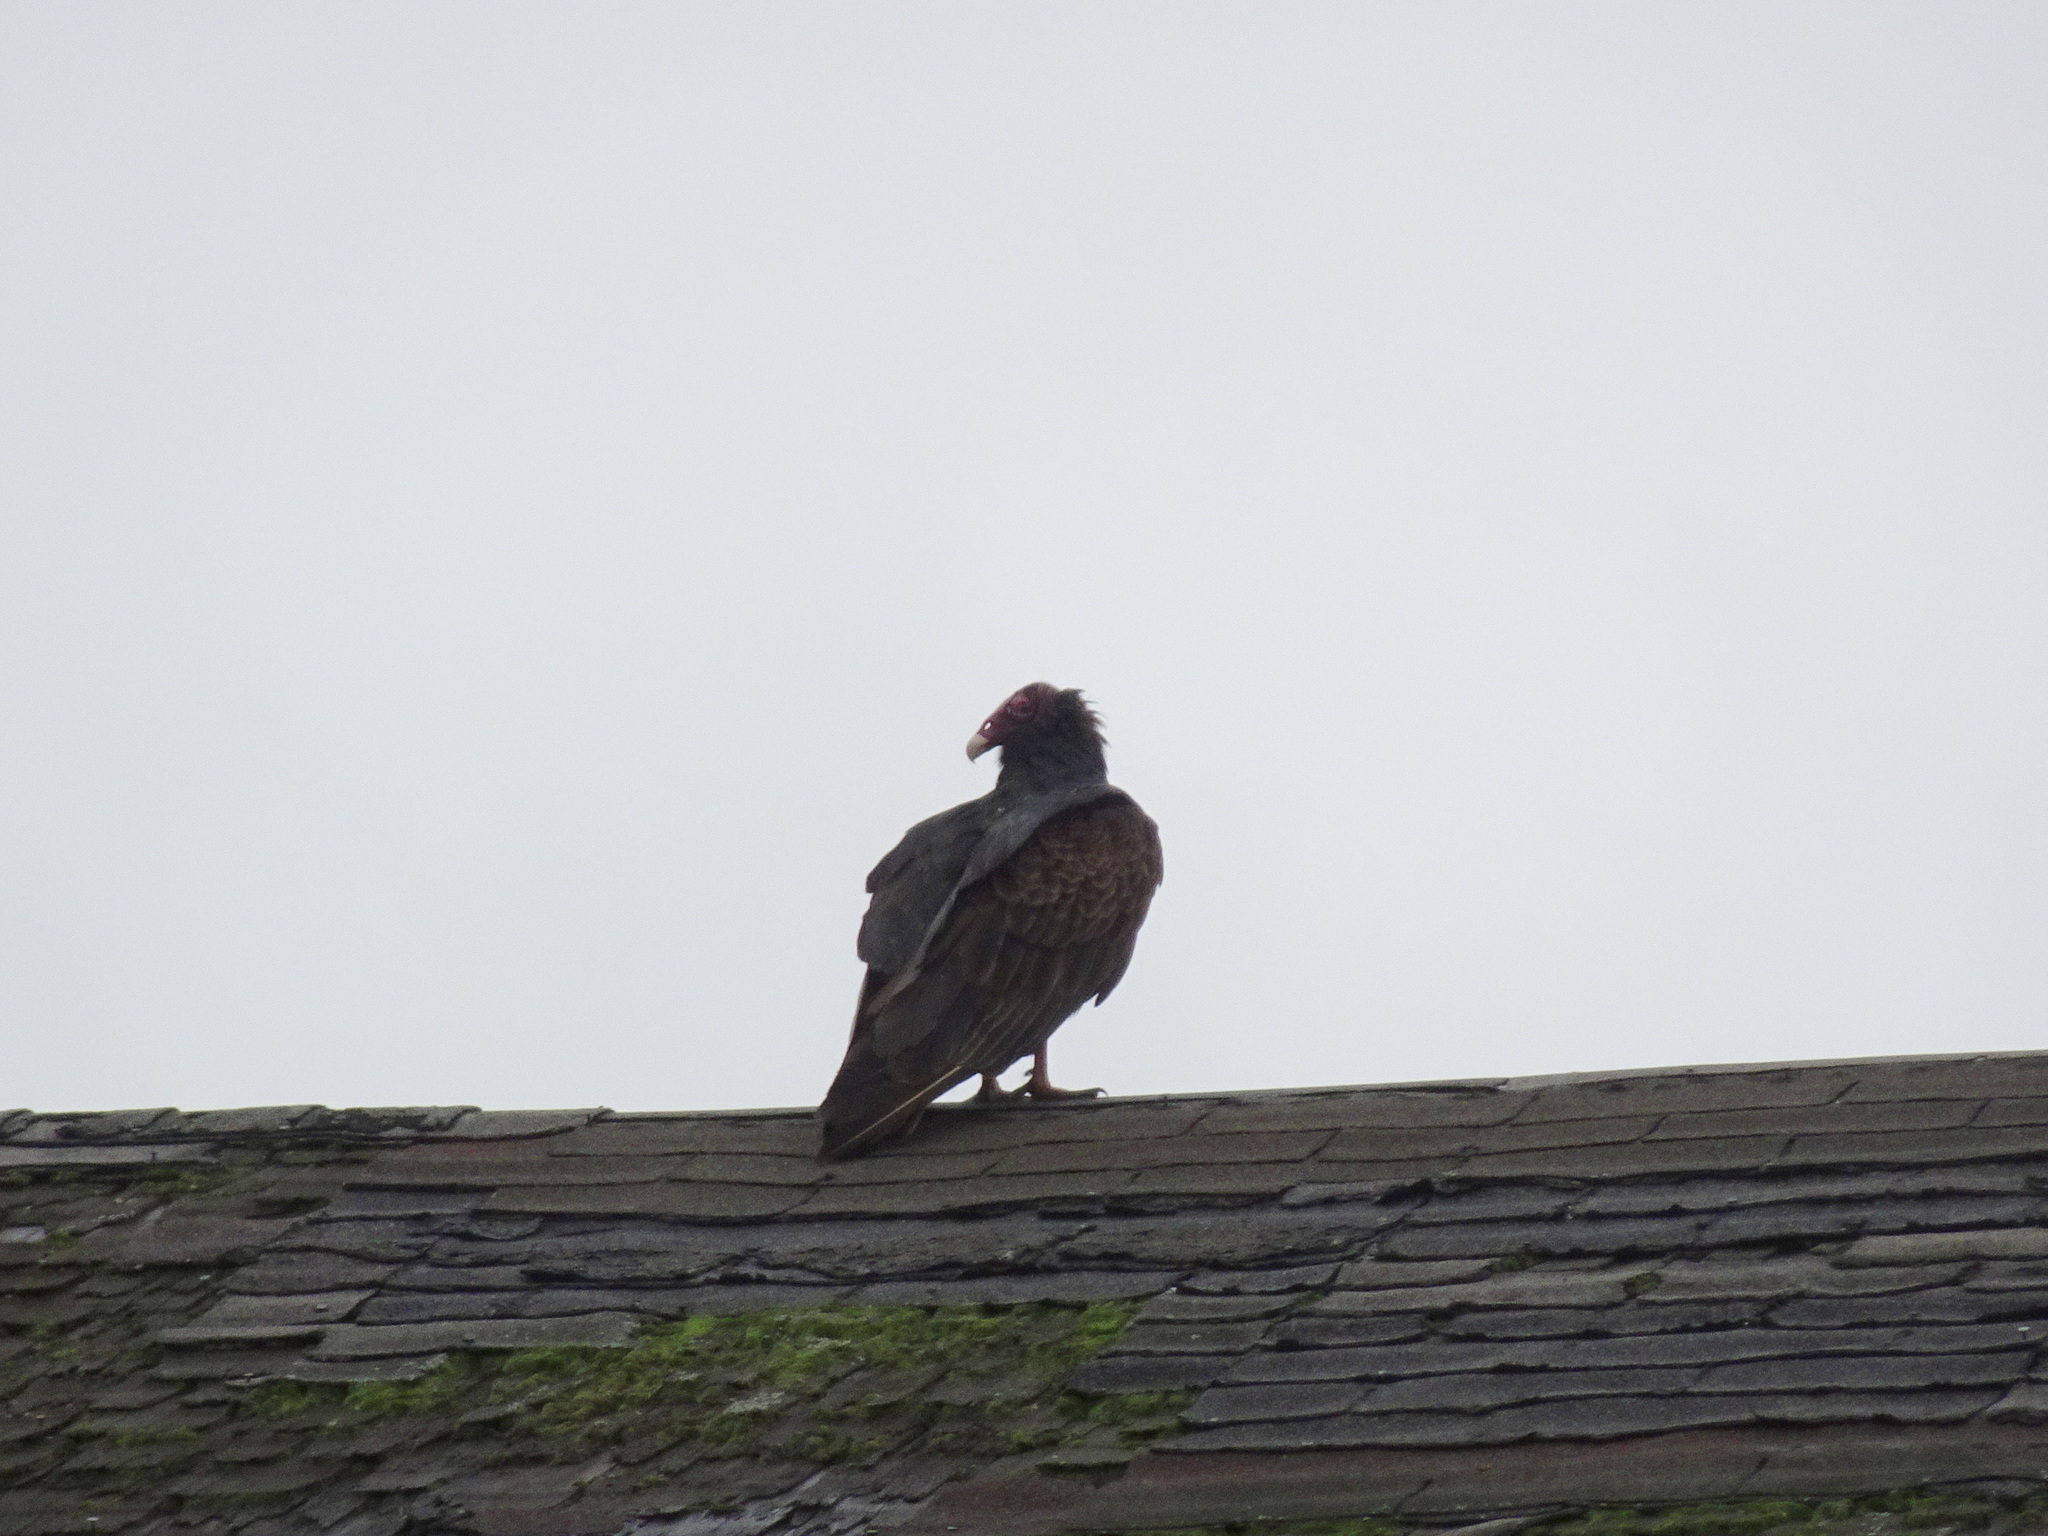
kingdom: Animalia
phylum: Chordata
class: Aves
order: Accipitriformes
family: Cathartidae
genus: Cathartes
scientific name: Cathartes aura
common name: Turkey vulture
